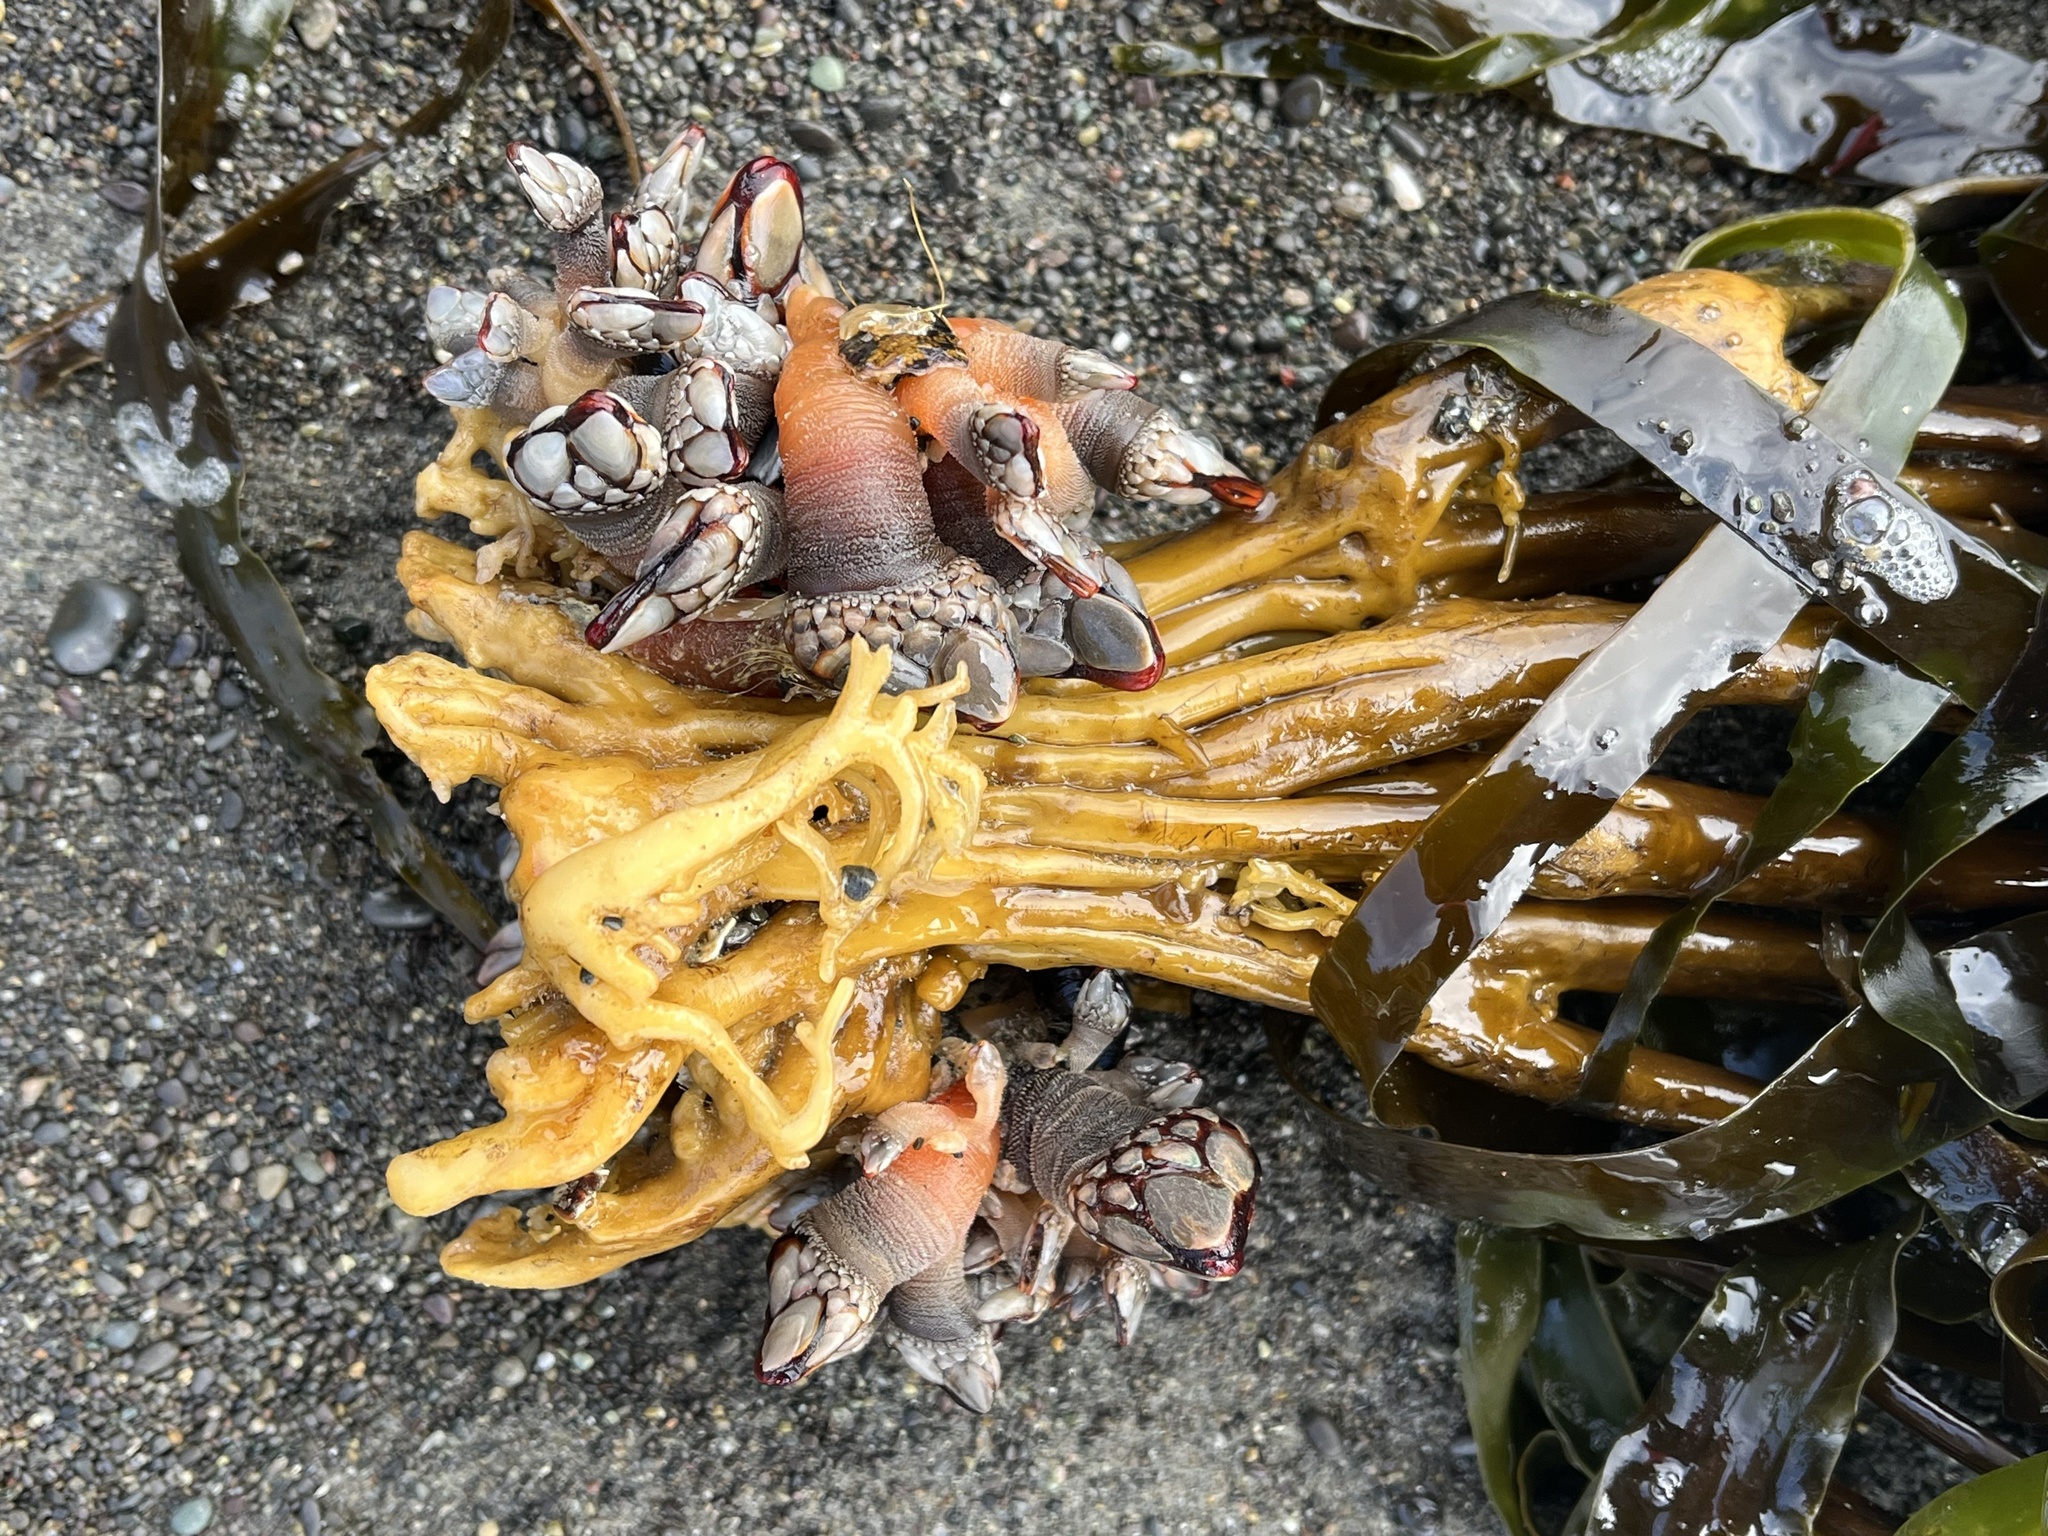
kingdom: Animalia
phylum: Arthropoda
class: Maxillopoda
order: Pedunculata
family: Pollicipedidae
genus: Pollicipes
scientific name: Pollicipes polymerus
